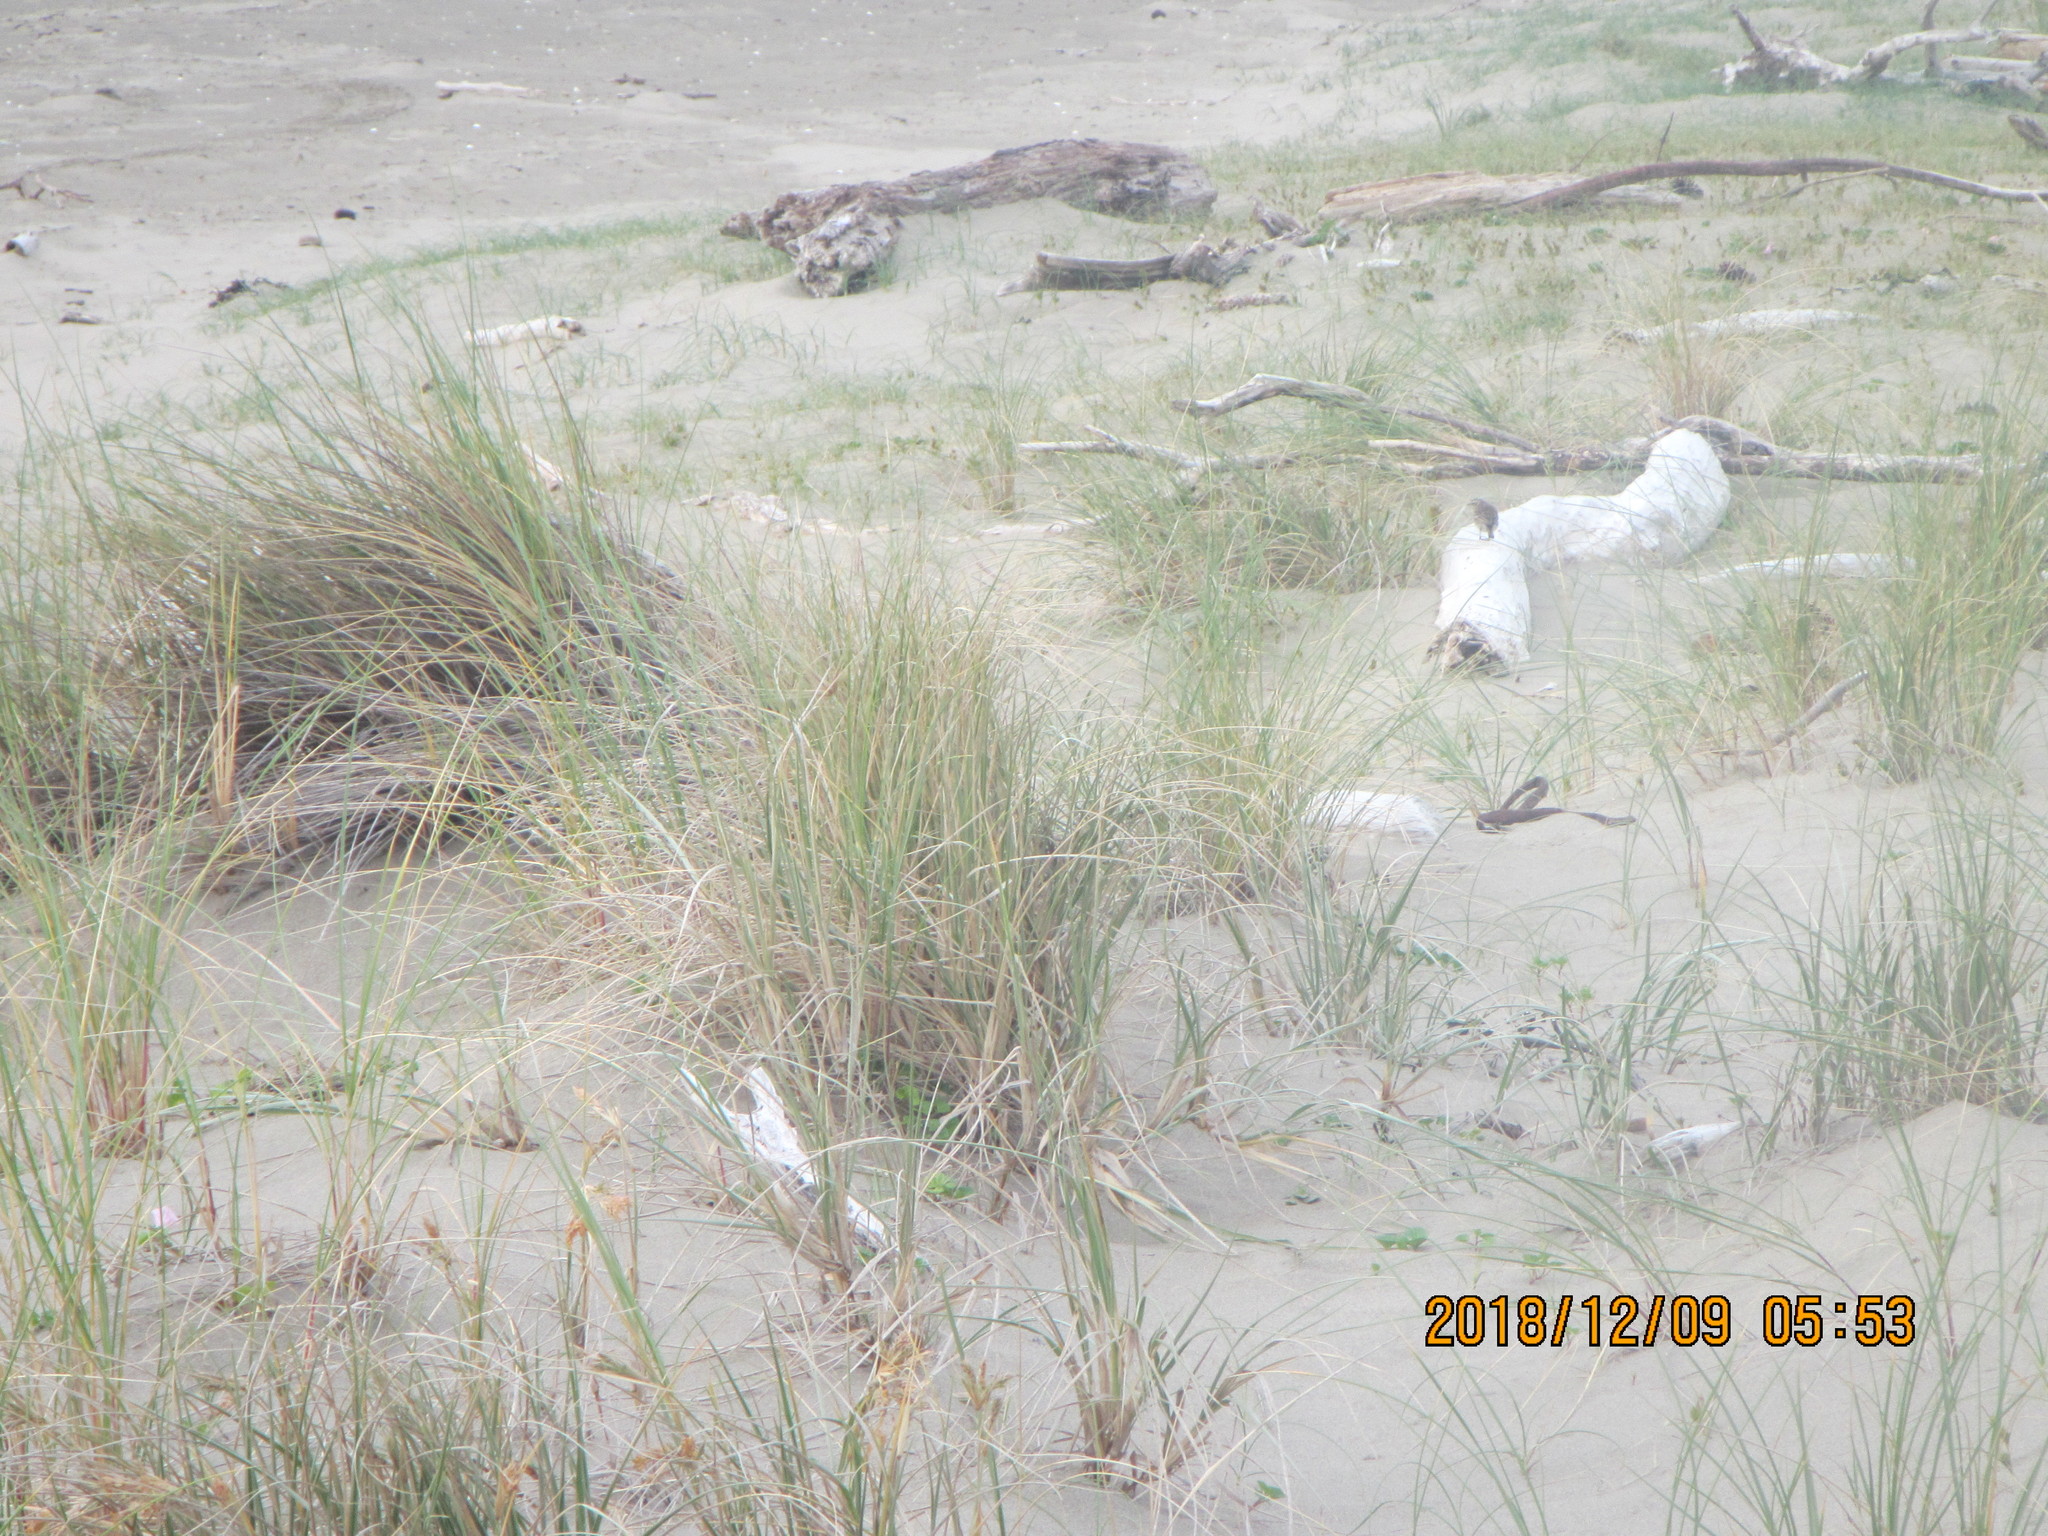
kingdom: Animalia
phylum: Chordata
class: Aves
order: Passeriformes
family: Motacillidae
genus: Anthus
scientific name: Anthus novaeseelandiae
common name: New zealand pipit
